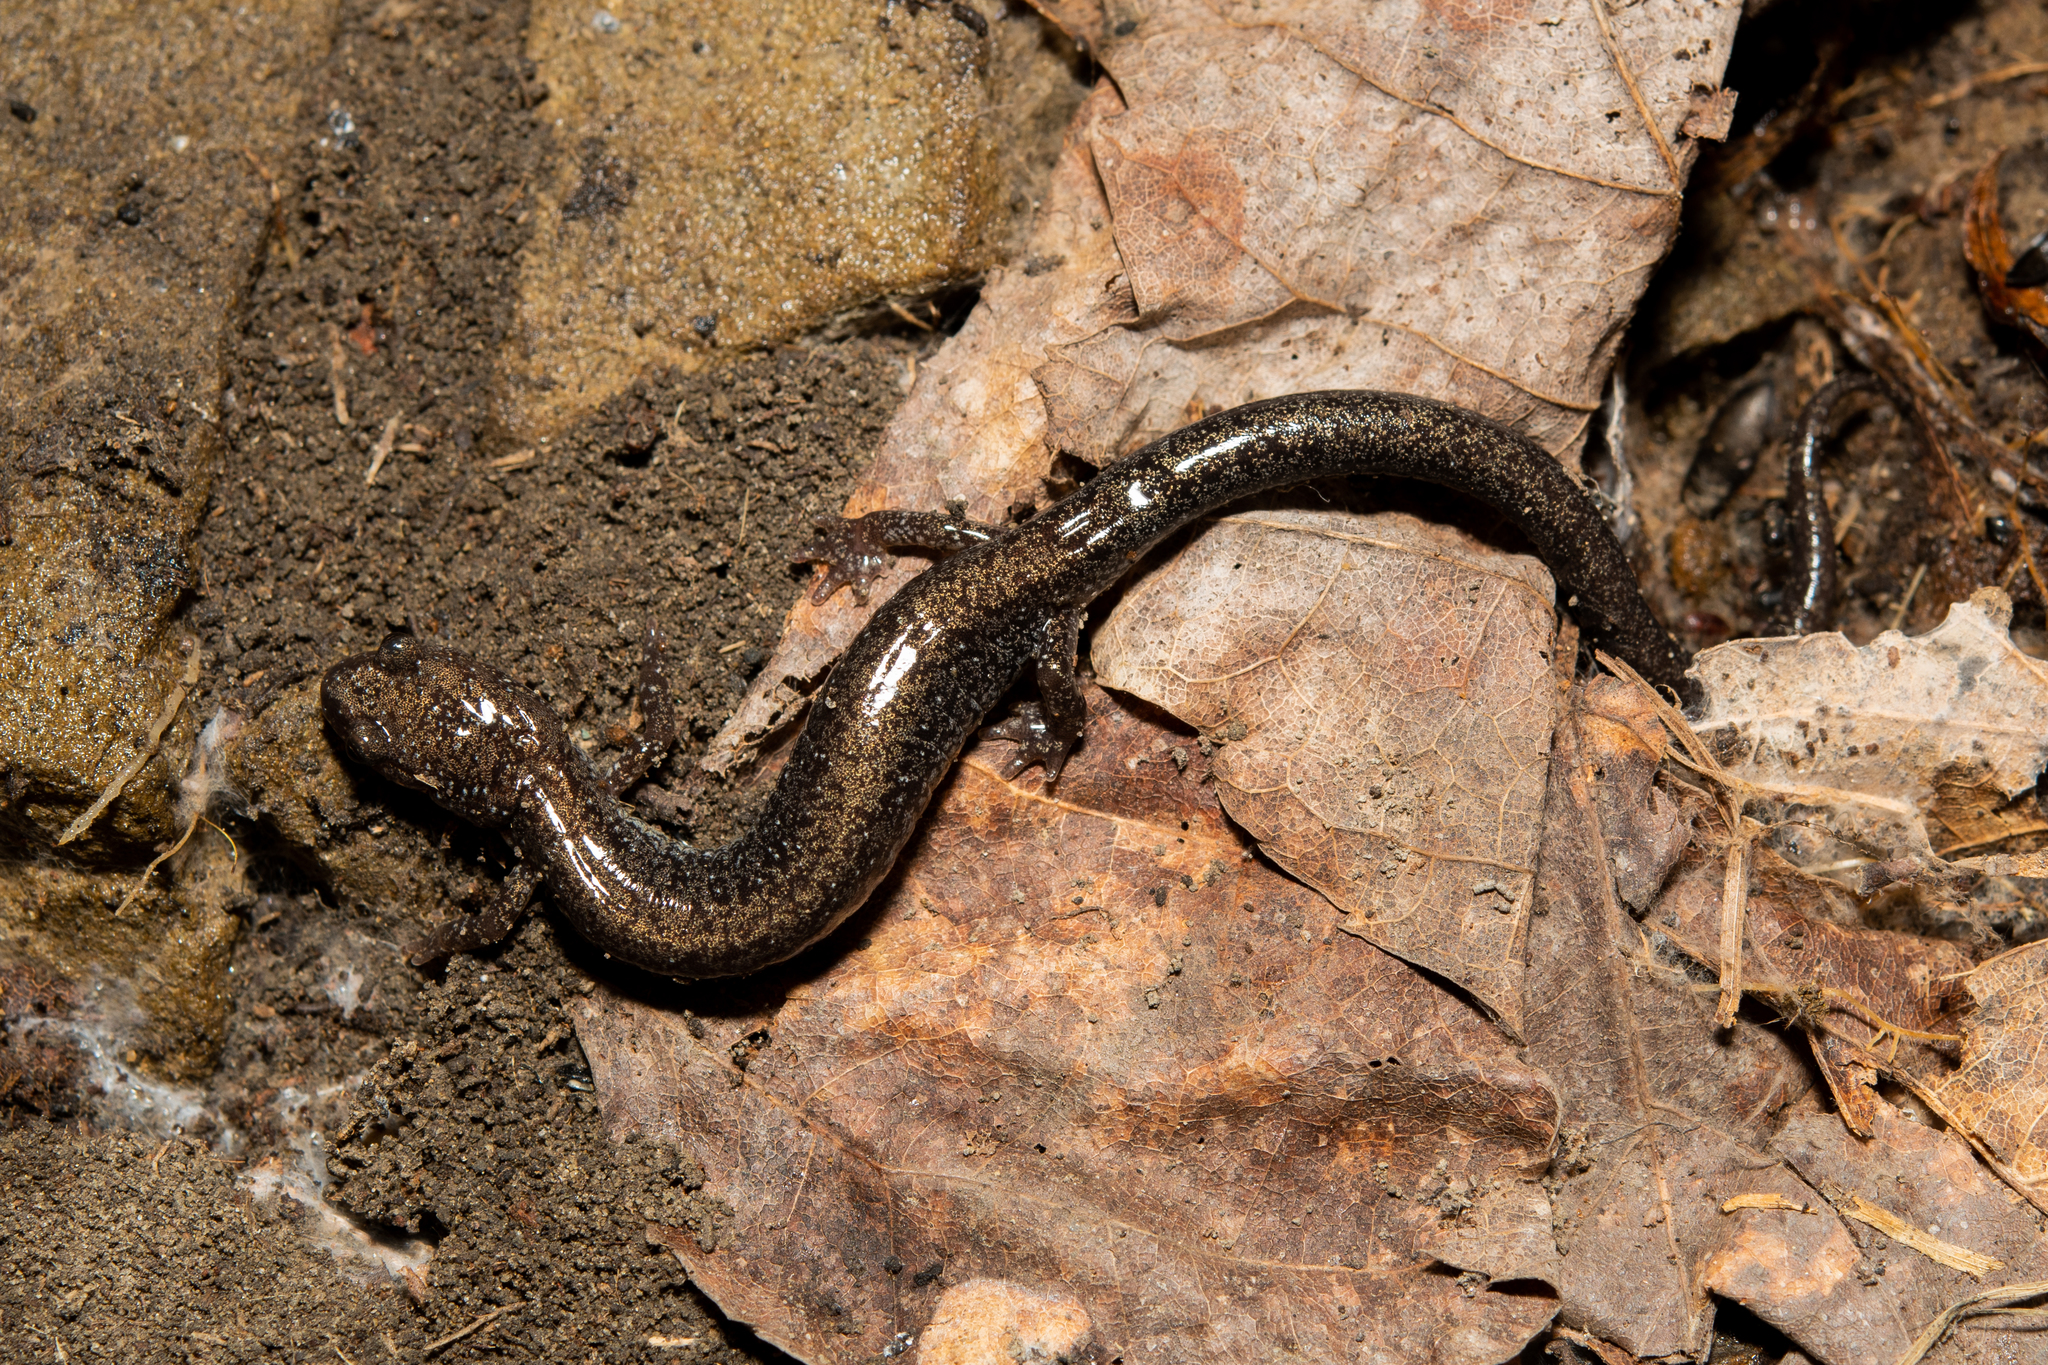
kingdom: Animalia
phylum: Chordata
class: Amphibia
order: Caudata
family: Plethodontidae
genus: Plethodon
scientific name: Plethodon hoffmani
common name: Valley and ridge salamander
